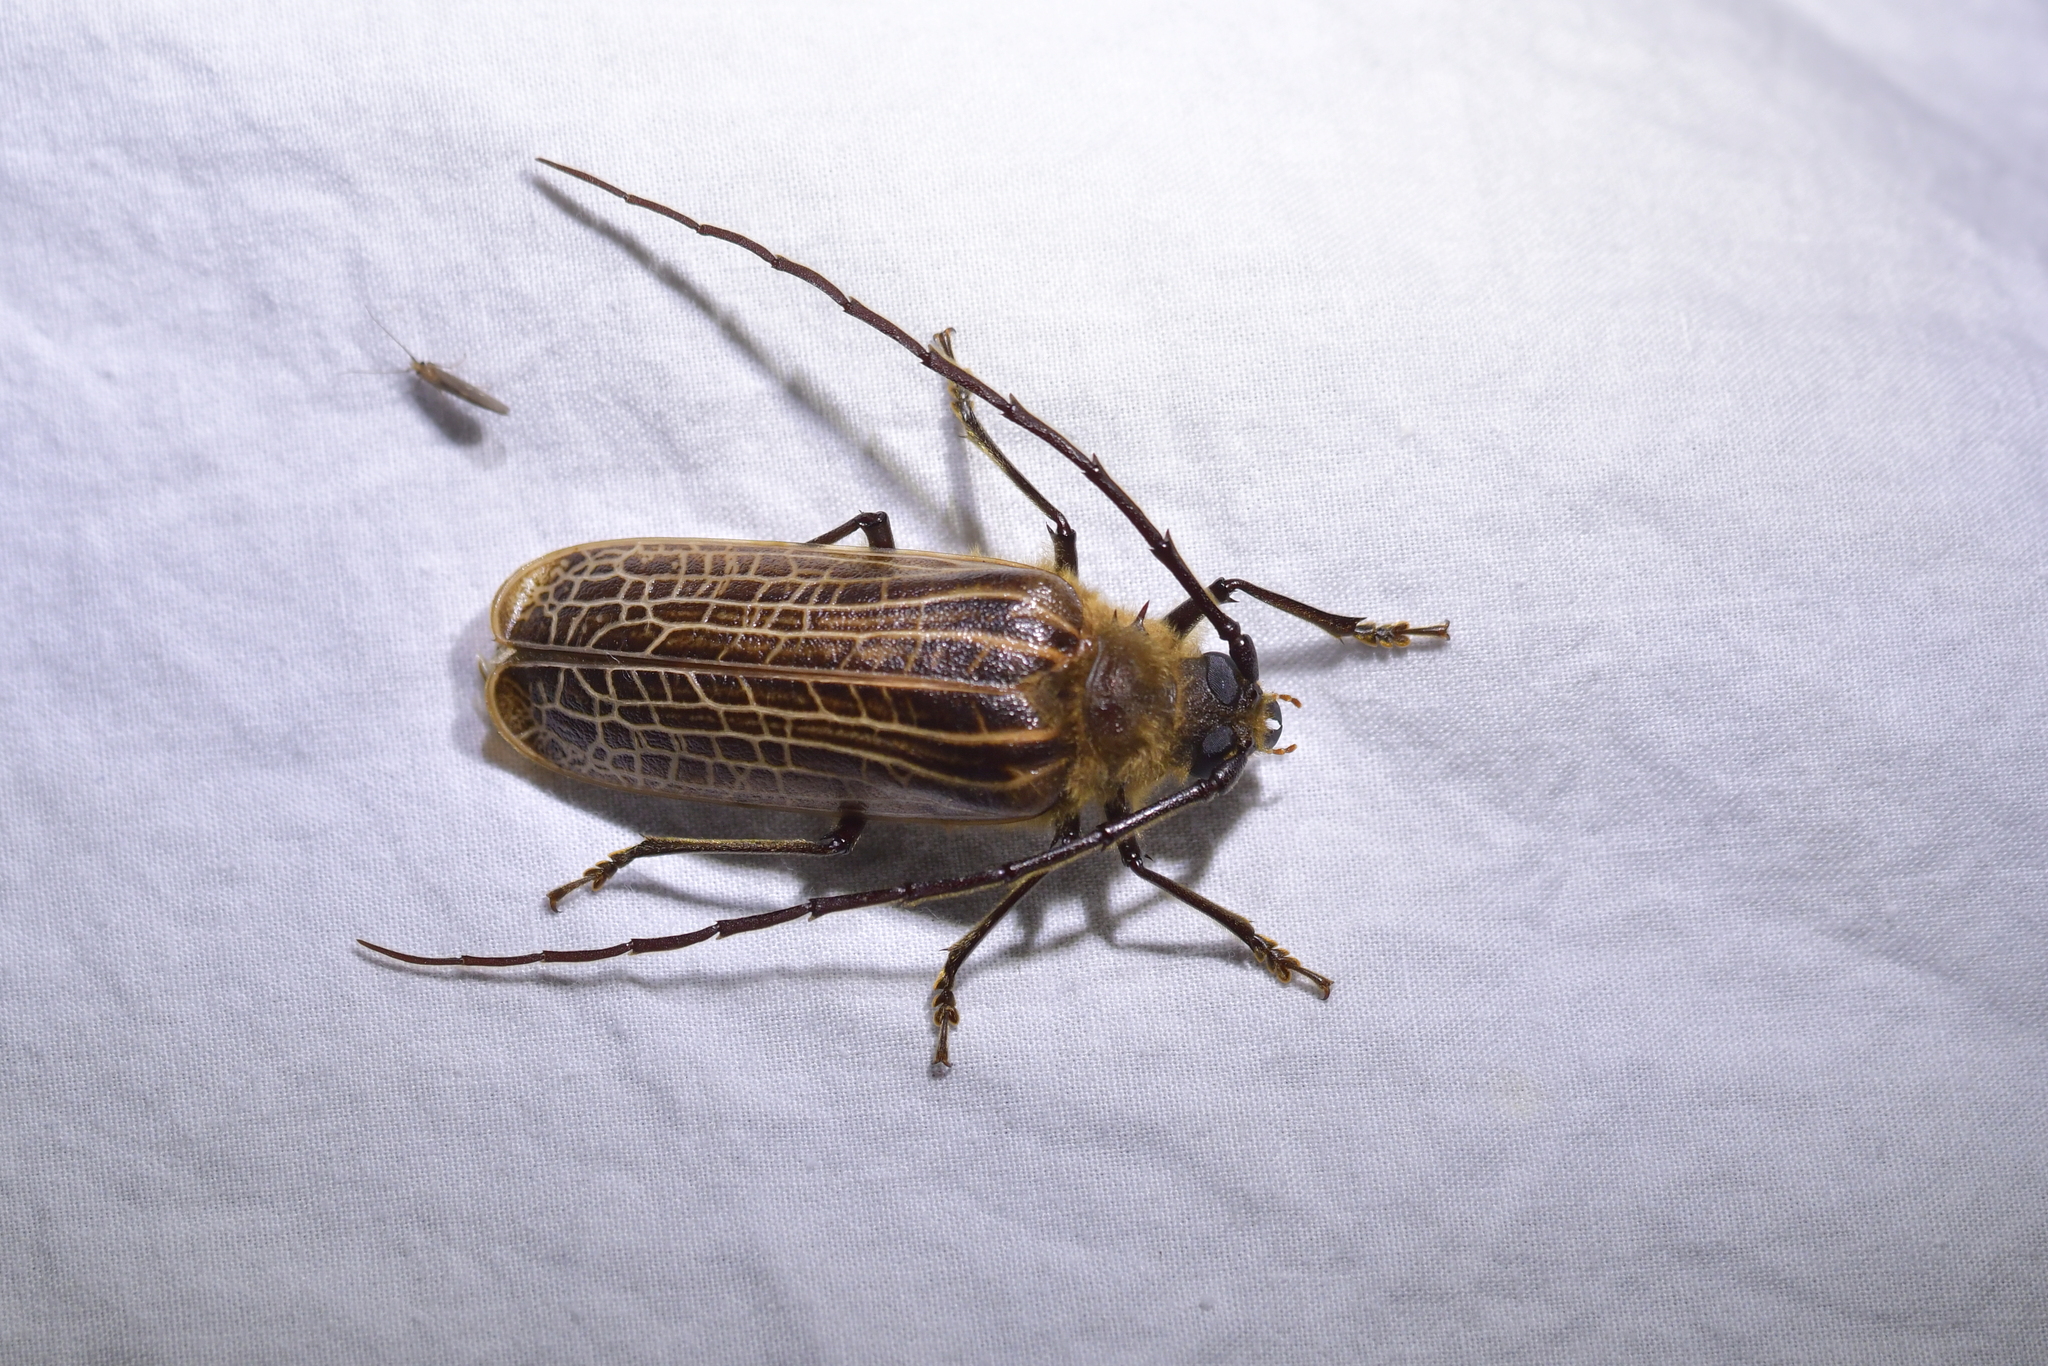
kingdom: Animalia
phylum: Arthropoda
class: Insecta
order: Coleoptera
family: Cerambycidae
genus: Prionoplus
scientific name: Prionoplus reticularis
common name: Huhu beetle
